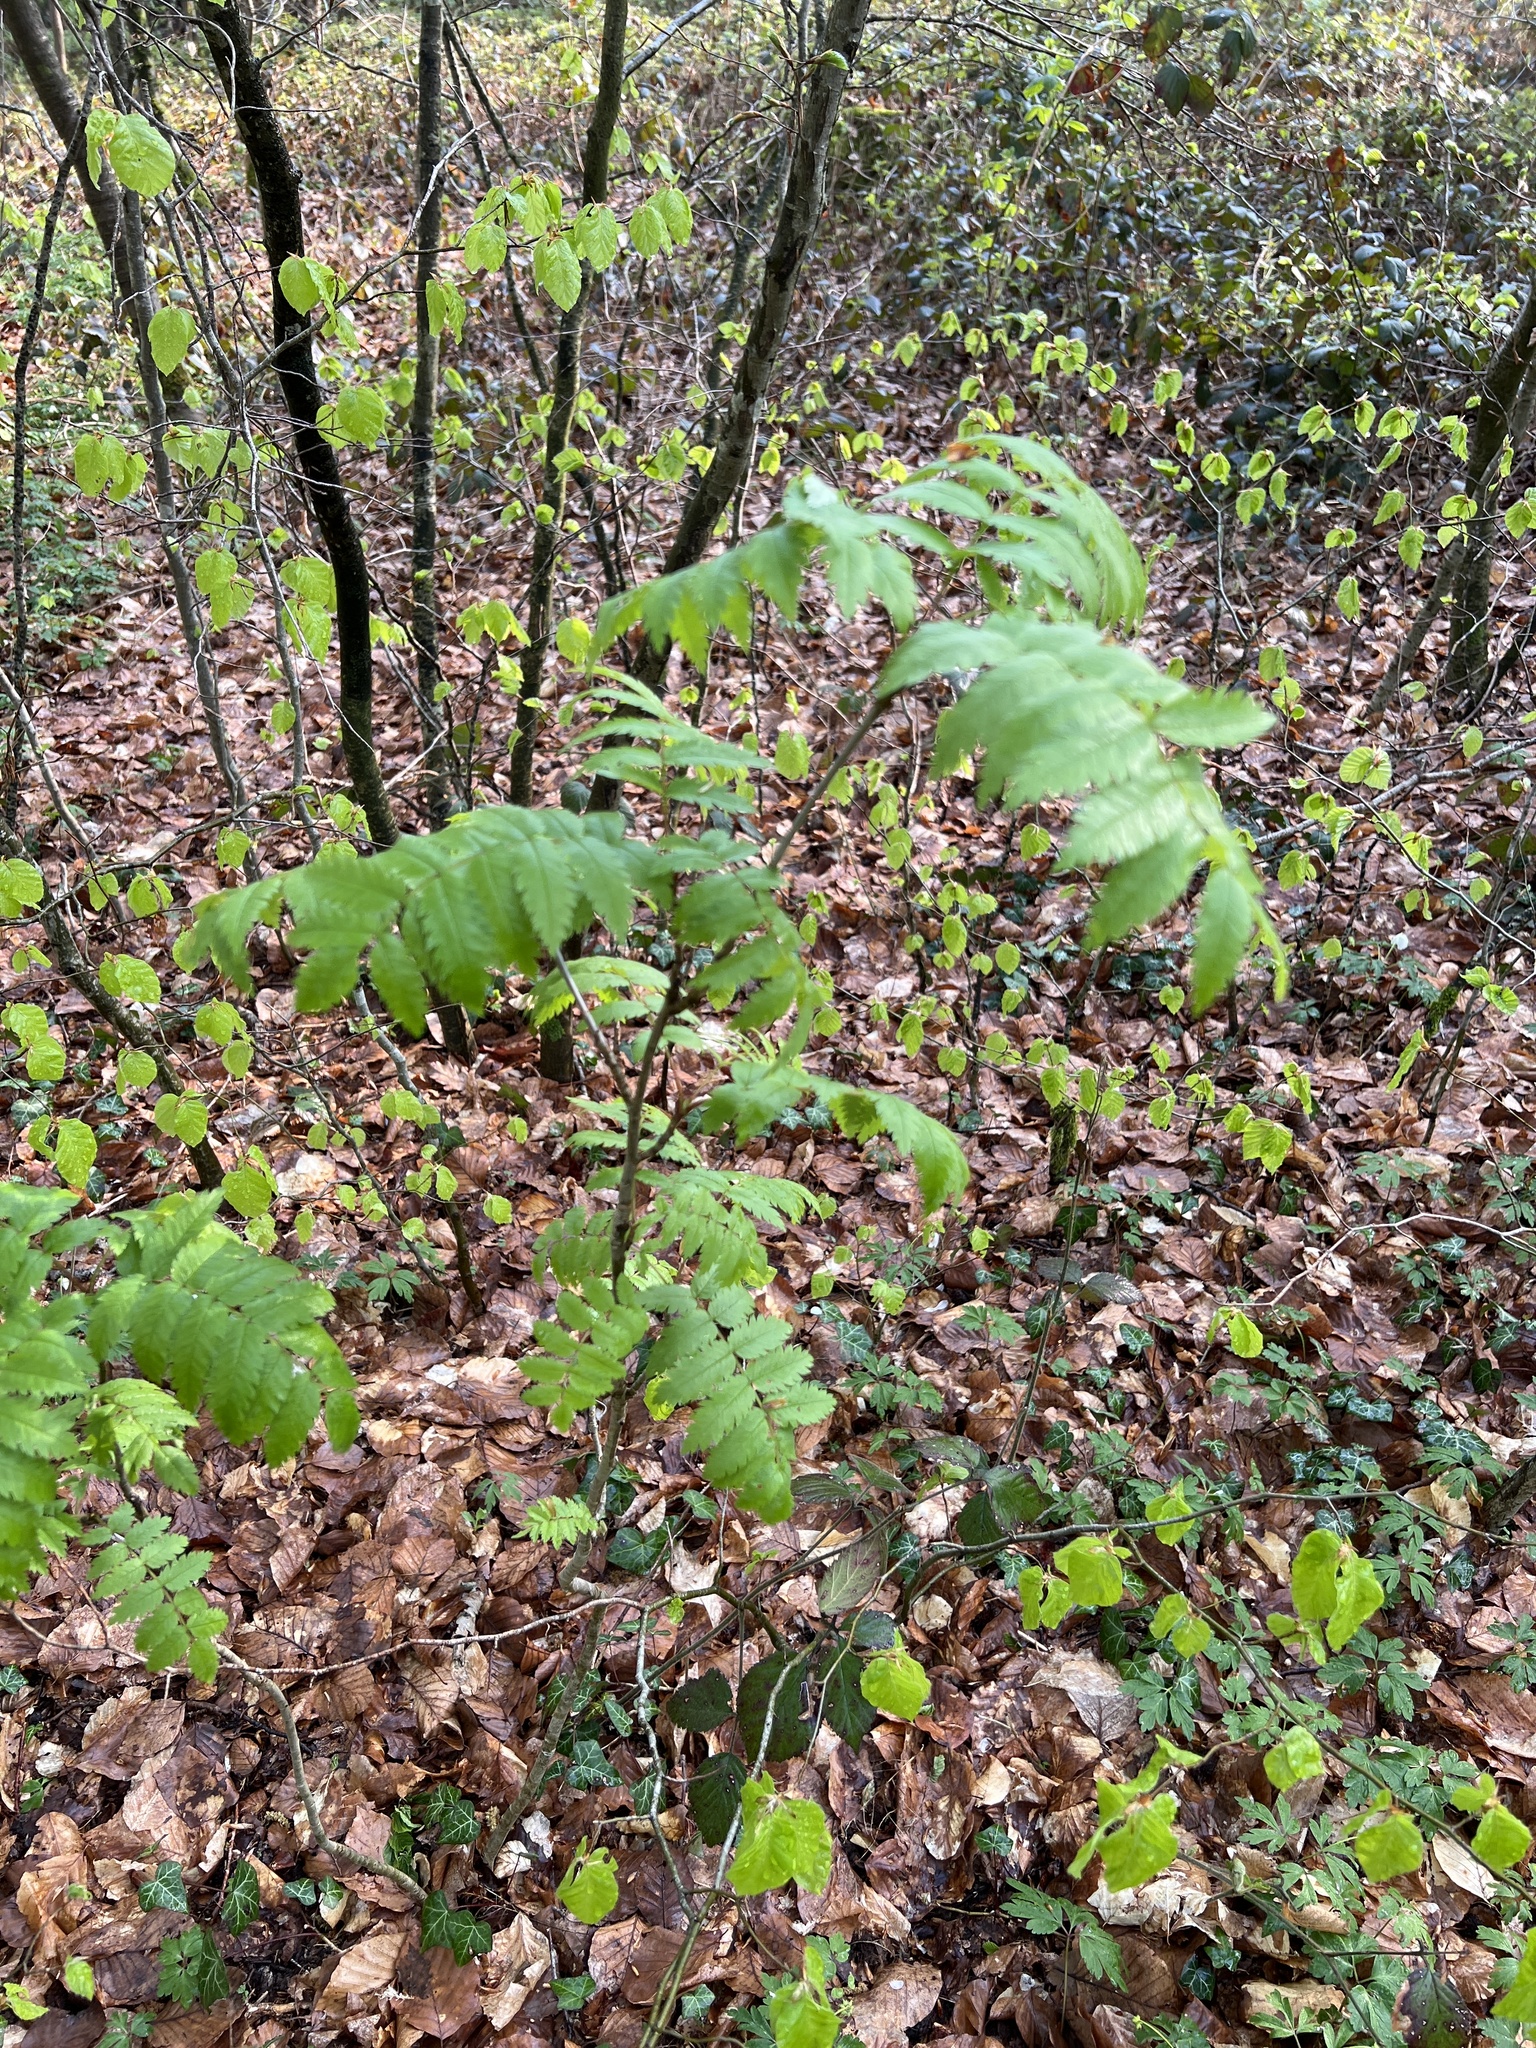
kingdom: Plantae
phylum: Tracheophyta
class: Magnoliopsida
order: Rosales
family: Rosaceae
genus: Sorbus
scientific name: Sorbus aucuparia
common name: Rowan
